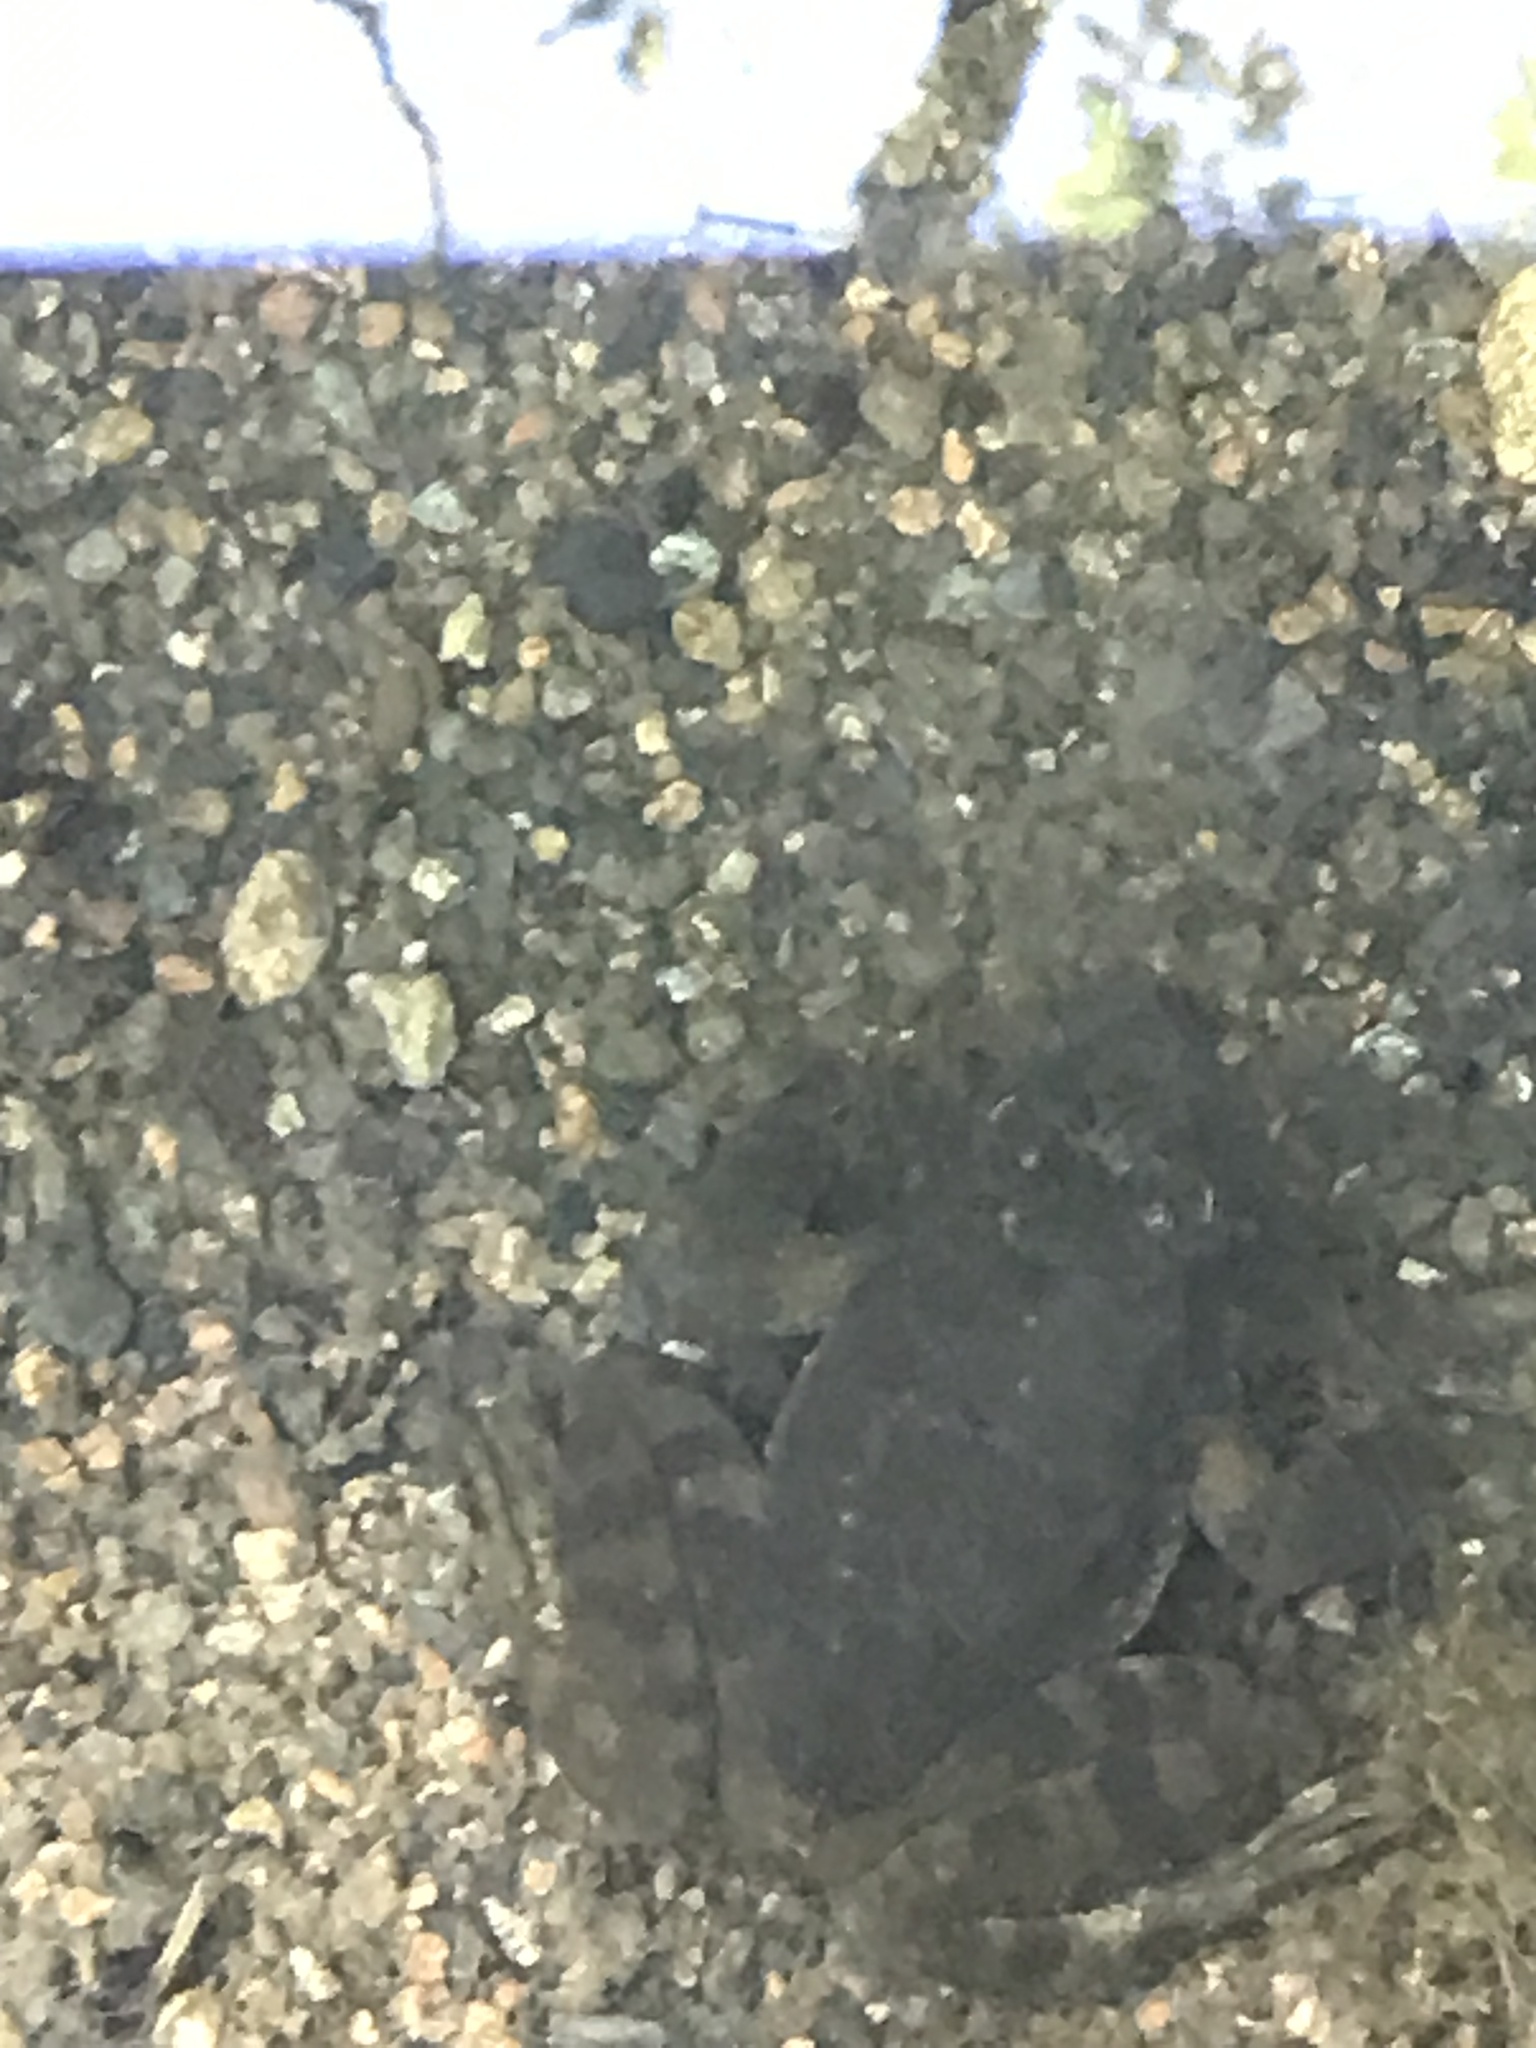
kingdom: Animalia
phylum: Chordata
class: Amphibia
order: Anura
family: Ranidae
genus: Rana
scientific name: Rana boylii
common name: Foothill yellow-legged frog
